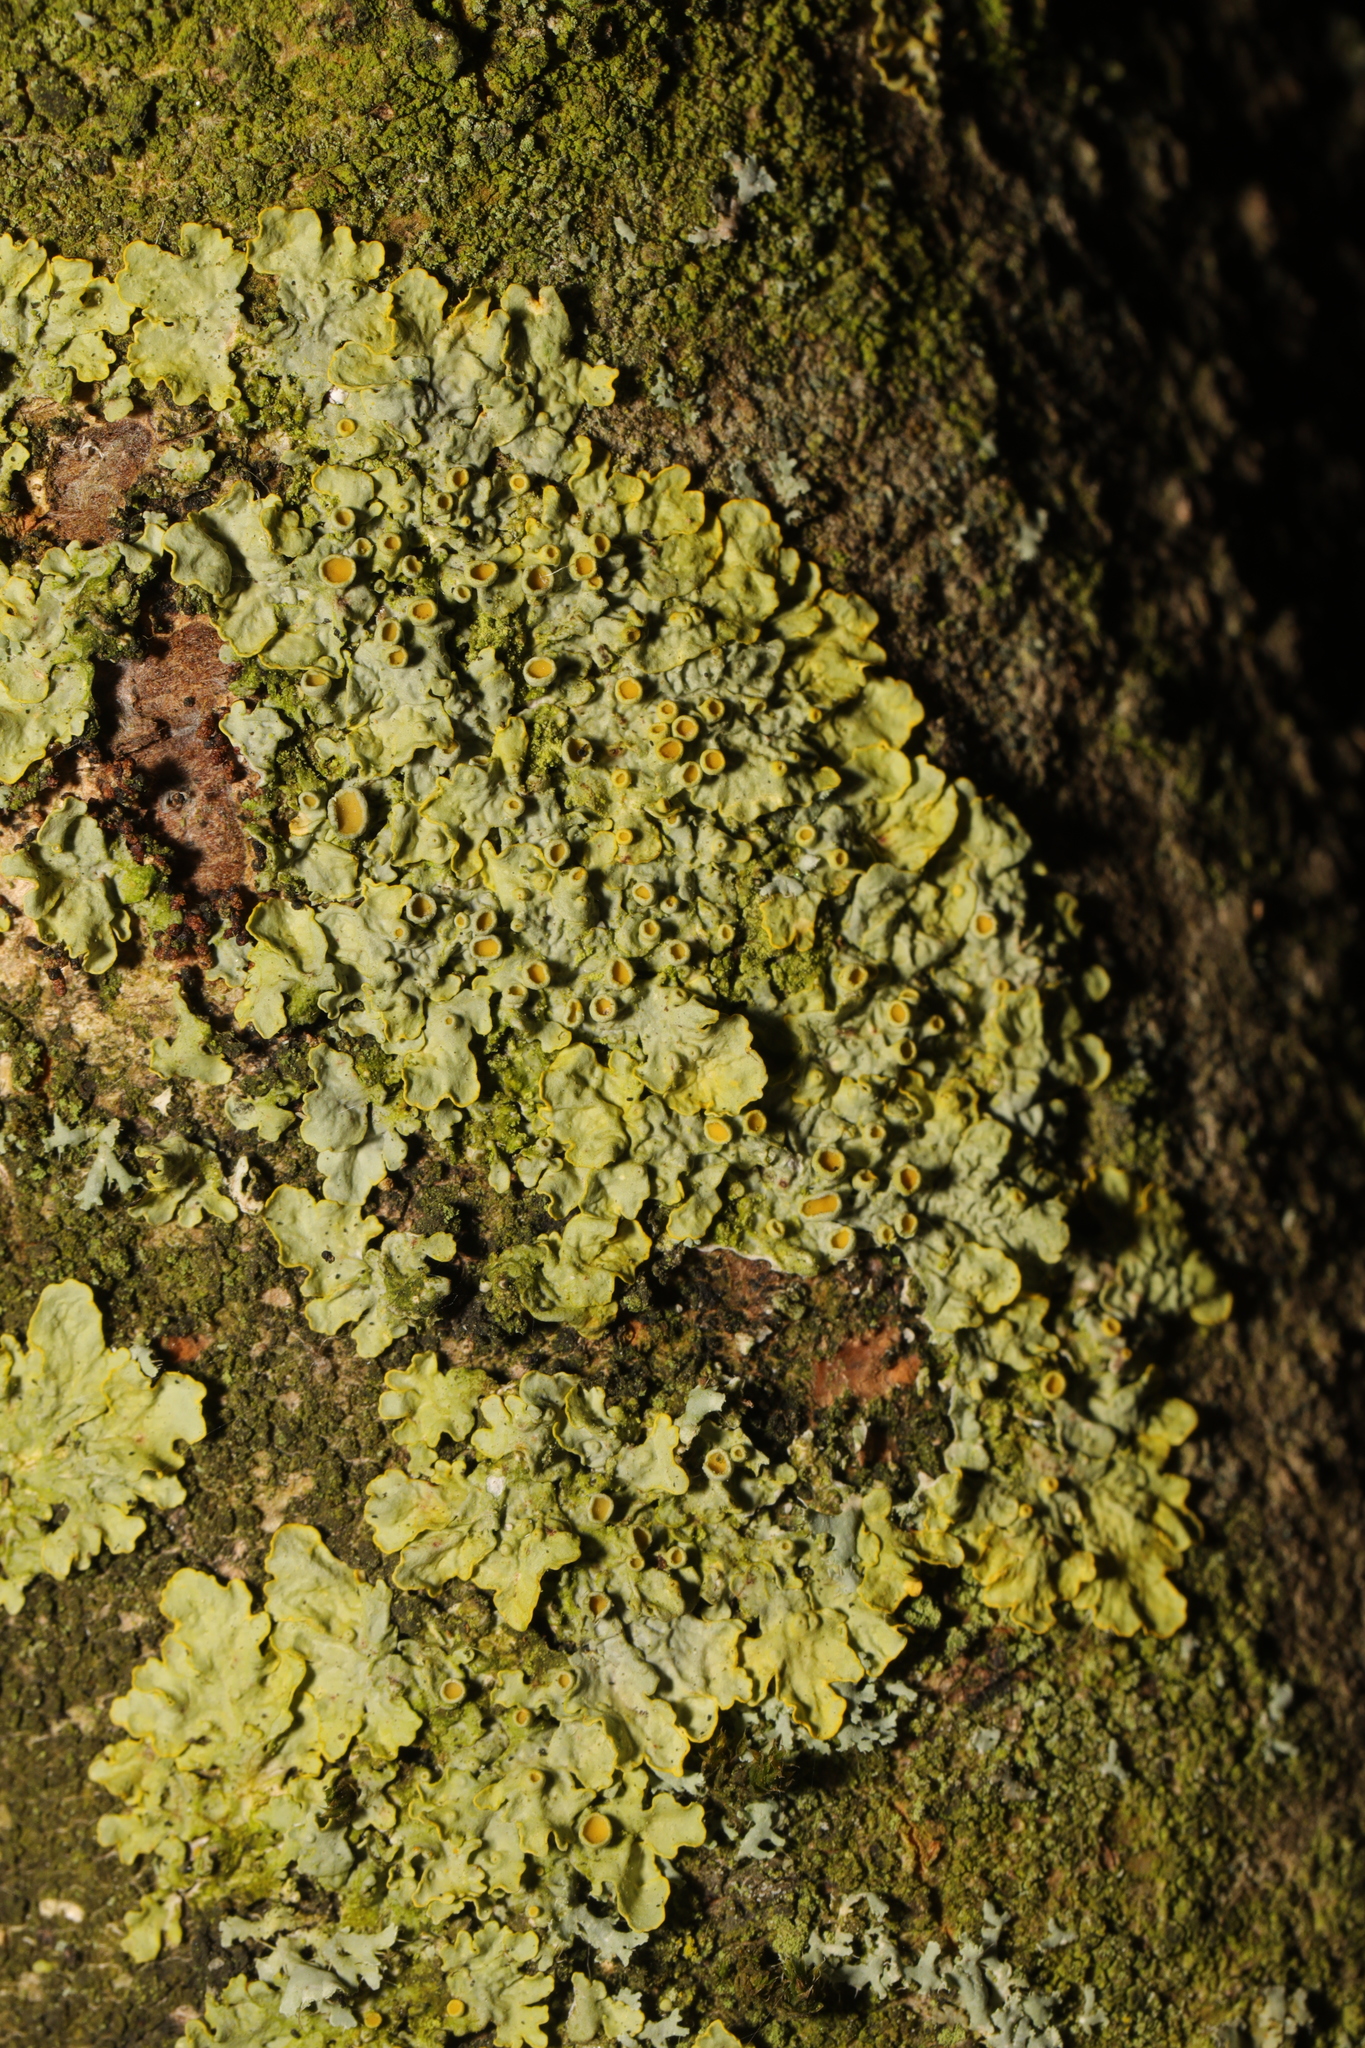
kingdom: Fungi
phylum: Ascomycota
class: Lecanoromycetes
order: Teloschistales
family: Teloschistaceae
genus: Xanthoria
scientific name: Xanthoria parietina
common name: Common orange lichen
